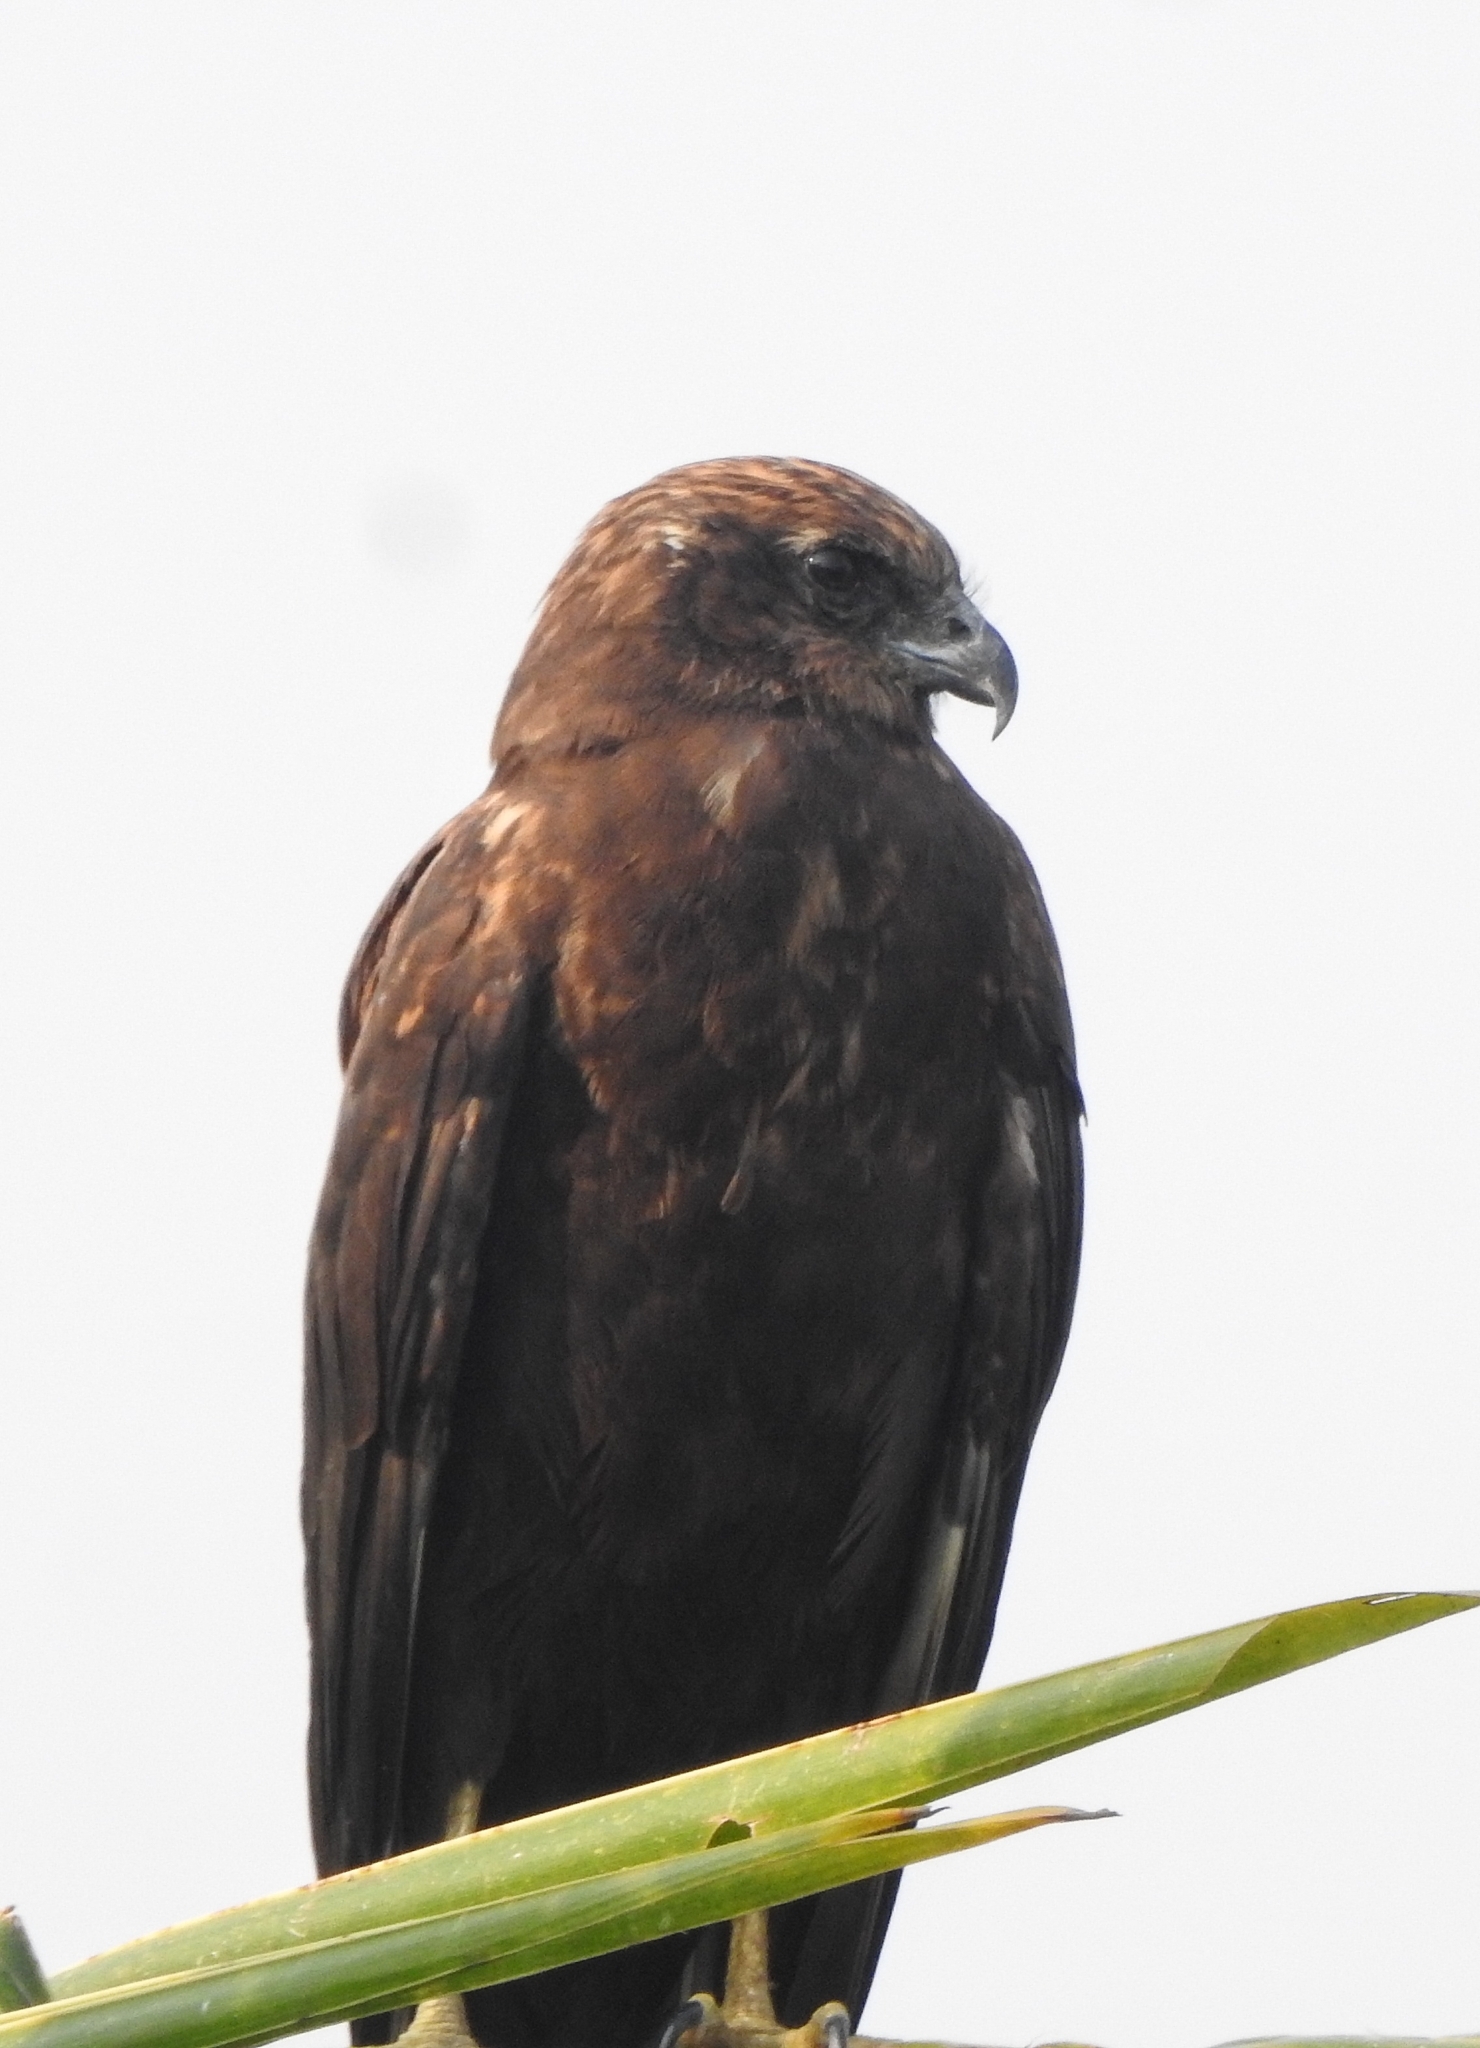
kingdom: Animalia
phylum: Chordata
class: Aves
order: Accipitriformes
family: Accipitridae
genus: Circus
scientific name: Circus aeruginosus
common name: Western marsh harrier
